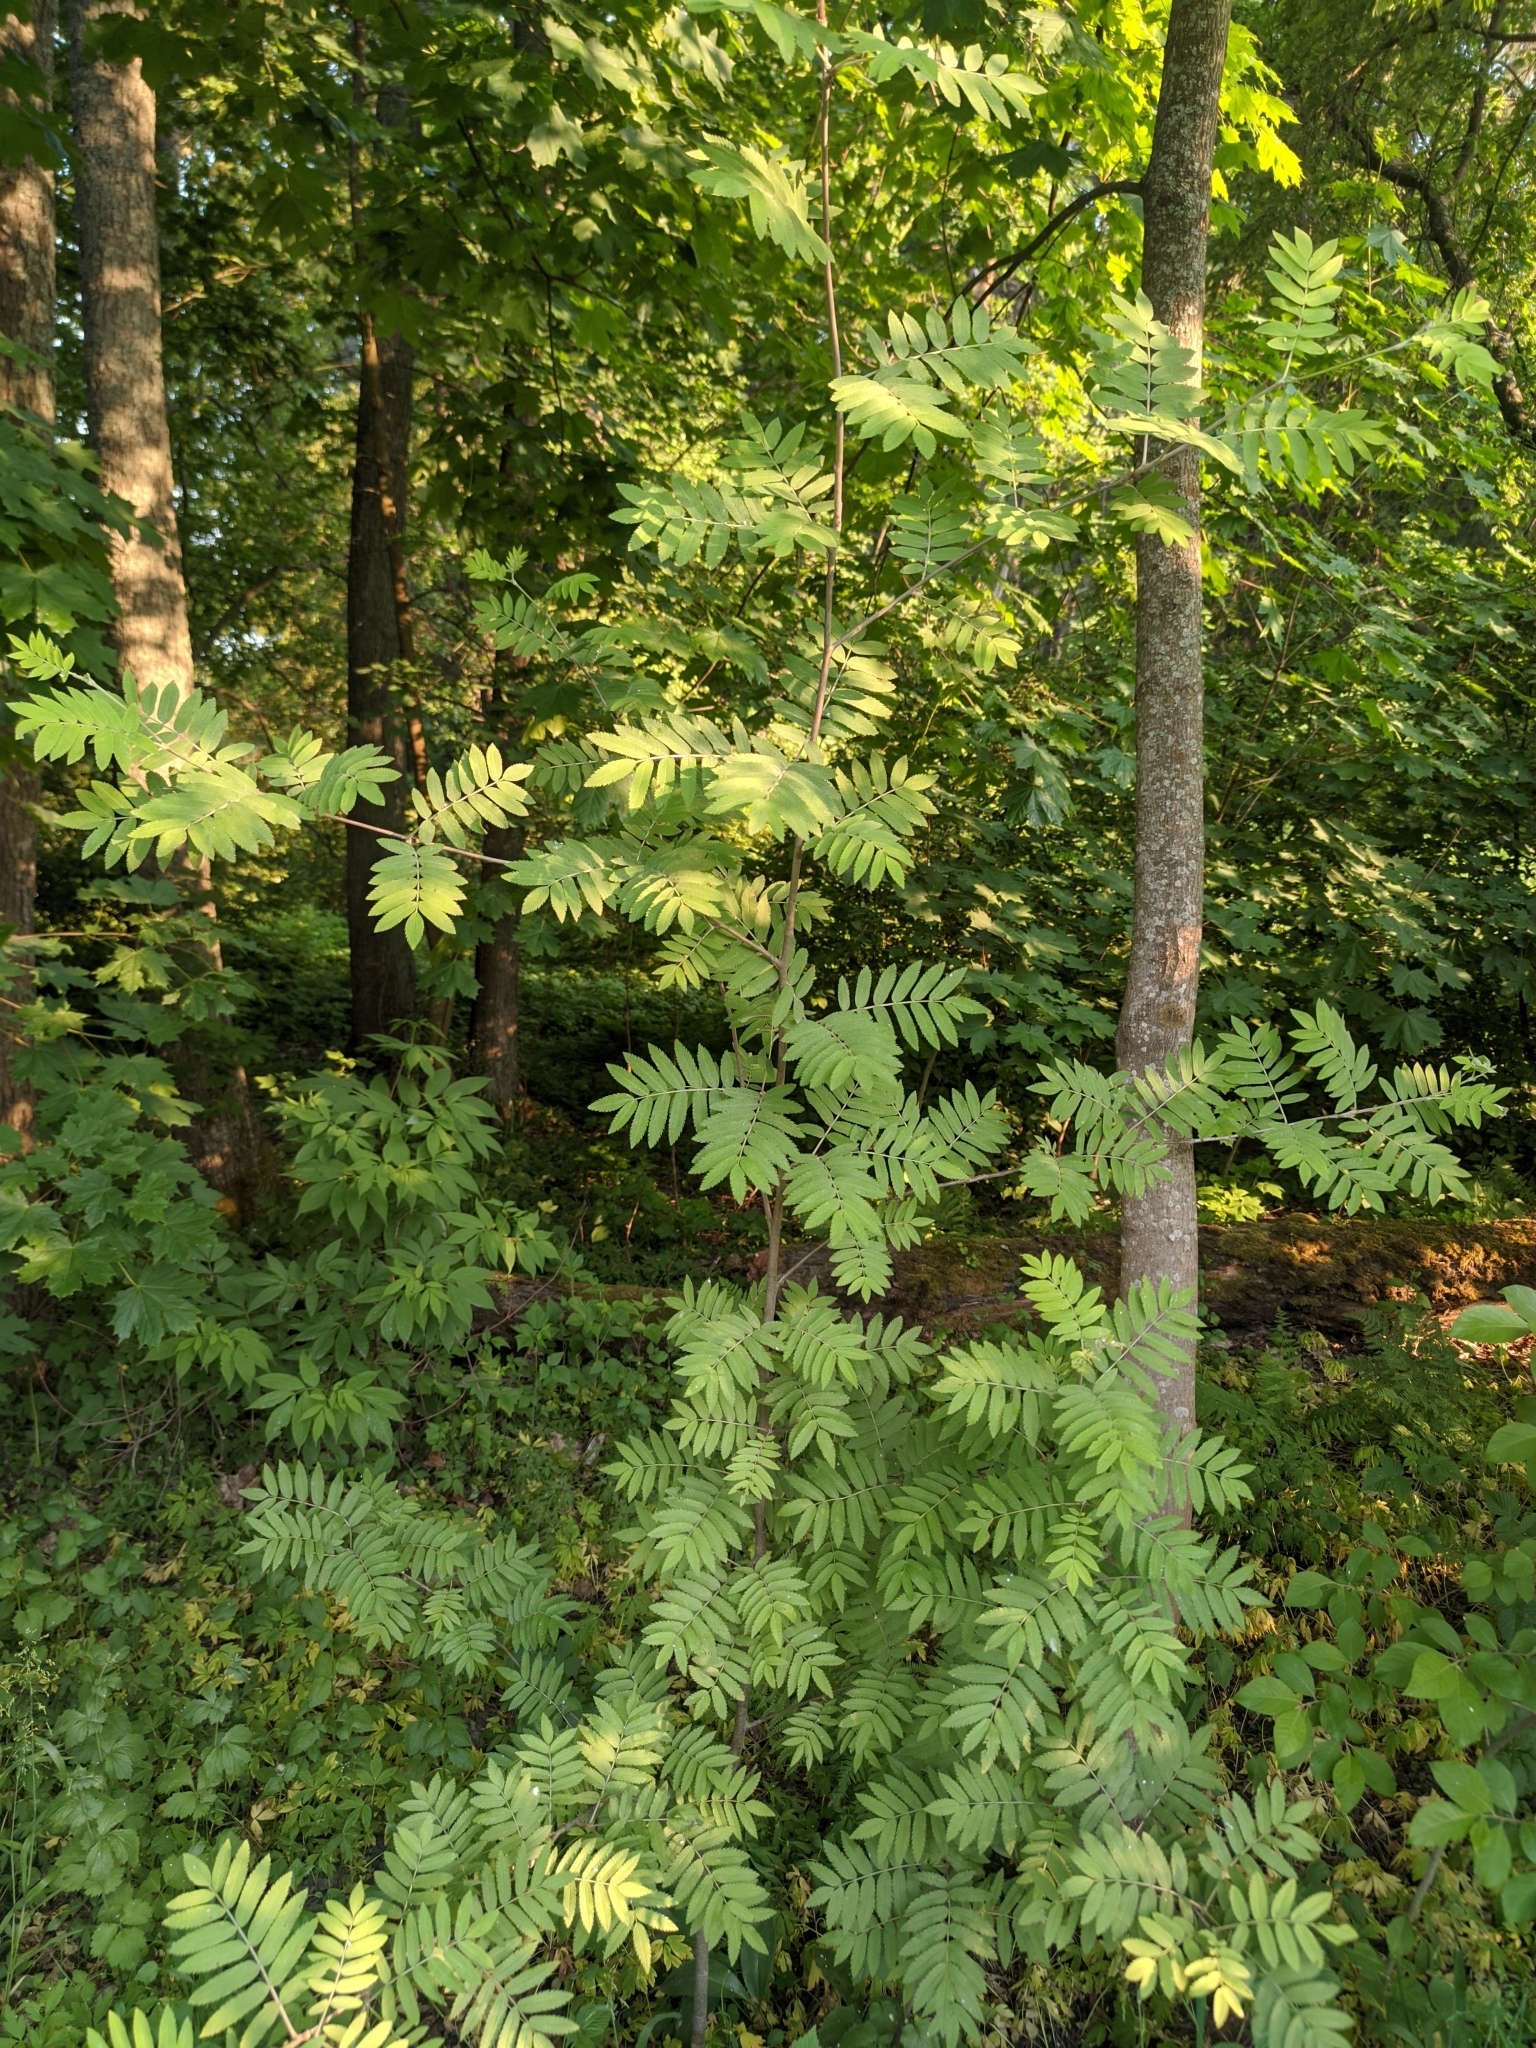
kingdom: Plantae
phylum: Tracheophyta
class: Magnoliopsida
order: Rosales
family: Rosaceae
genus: Sorbus
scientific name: Sorbus aucuparia
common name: Rowan
